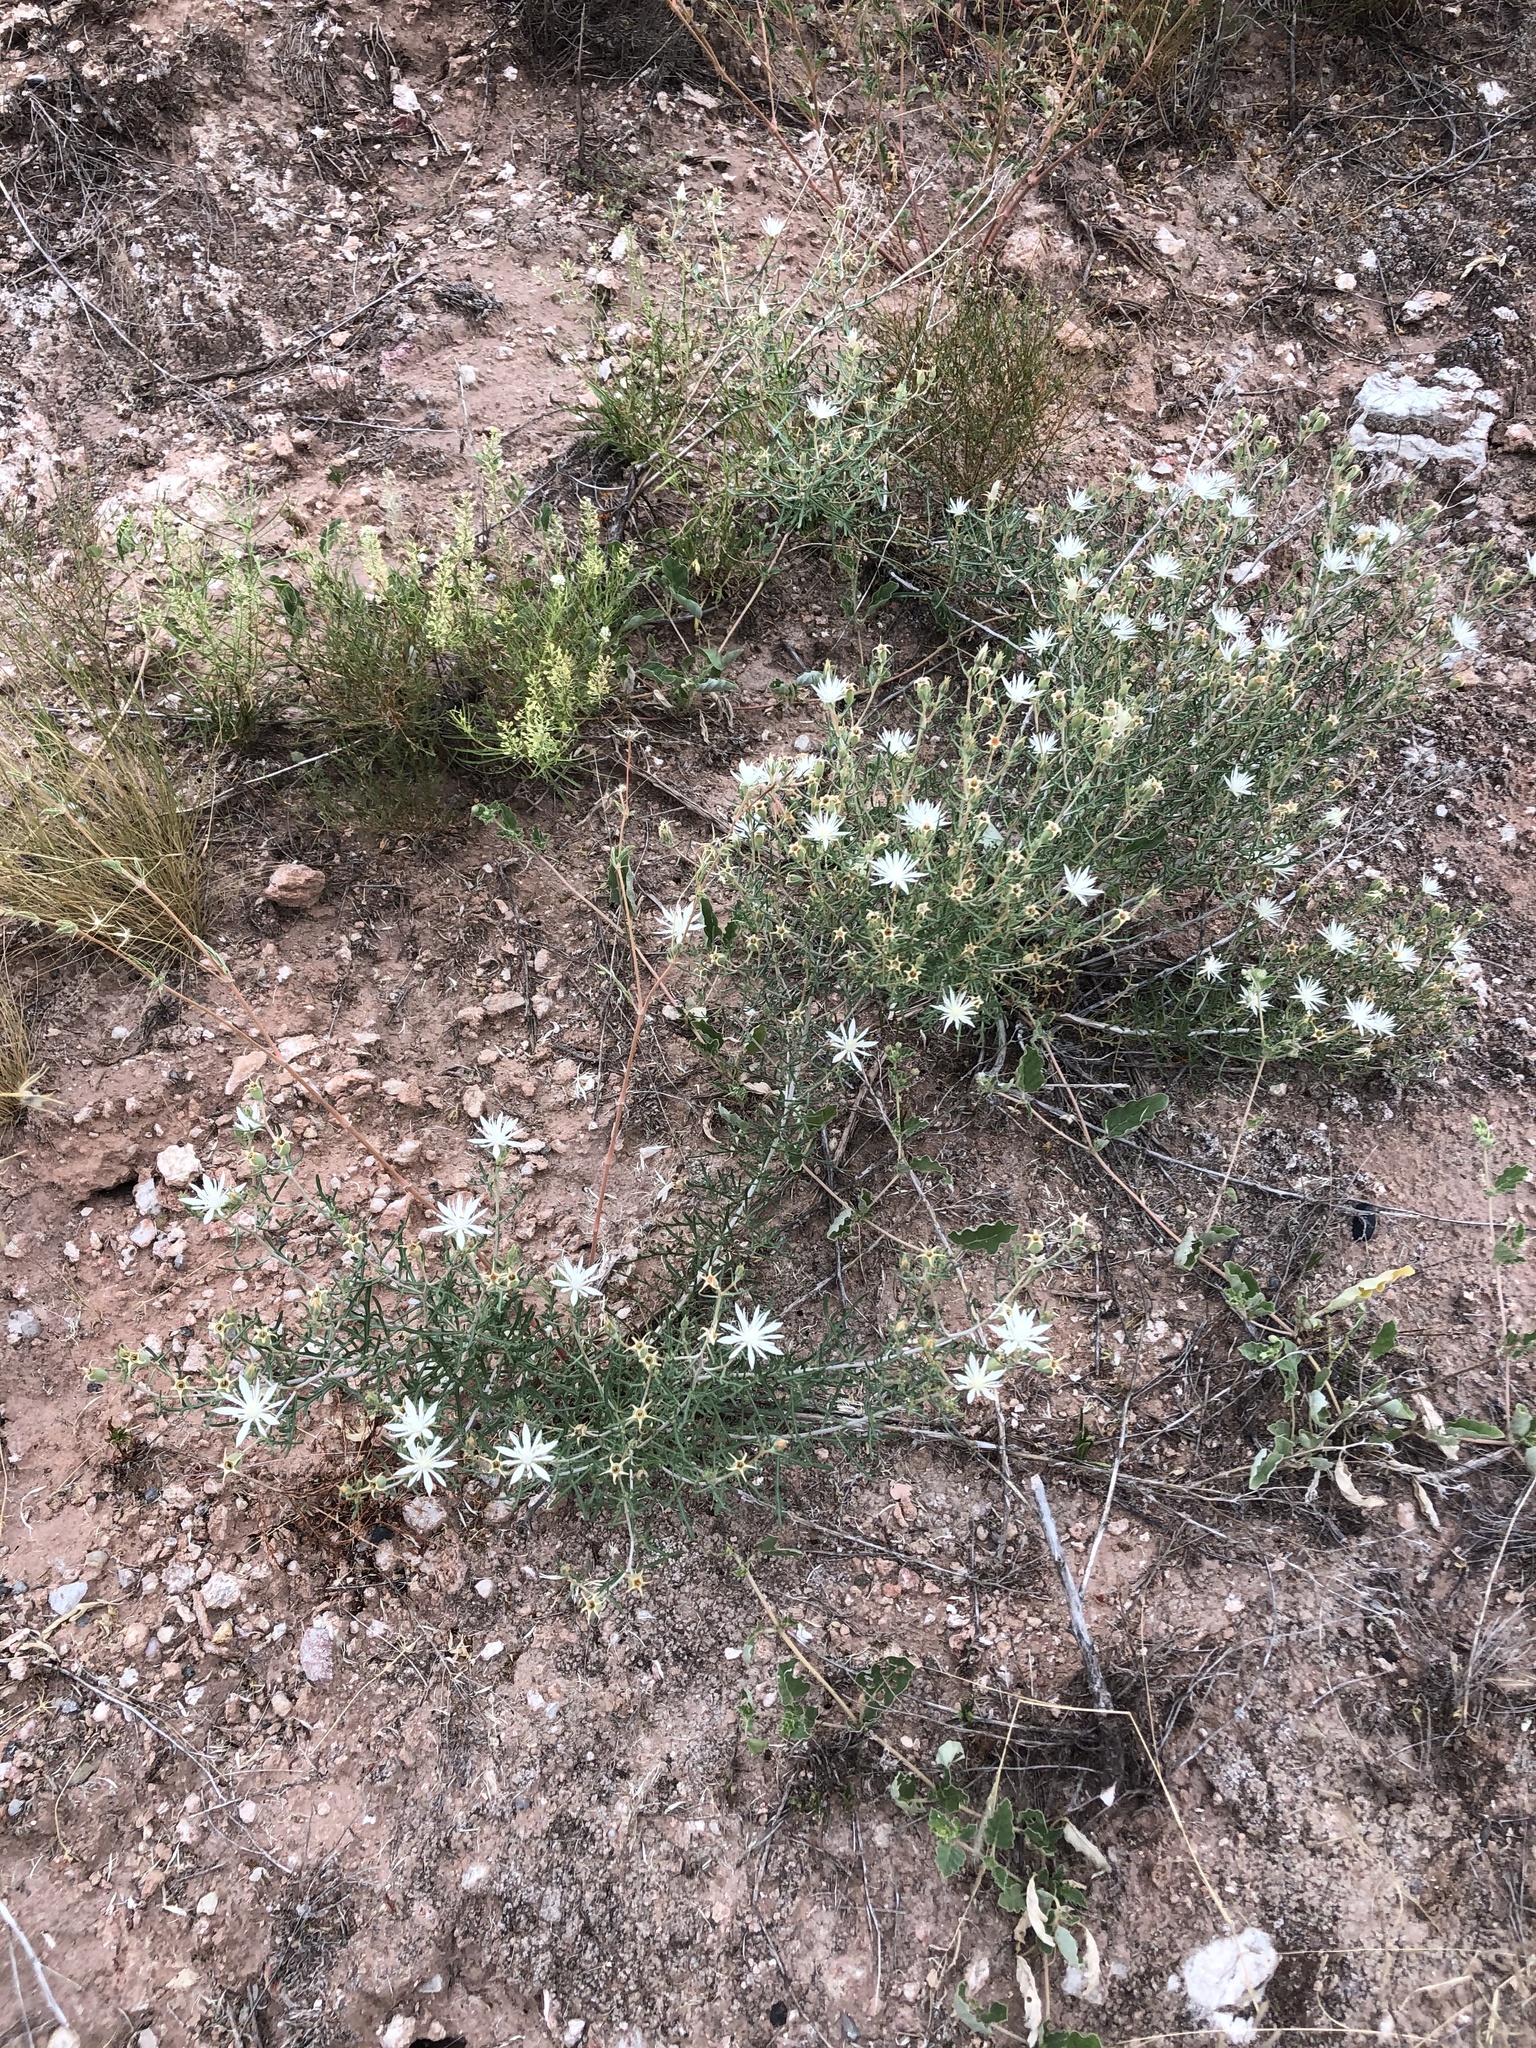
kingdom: Plantae
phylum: Tracheophyta
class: Magnoliopsida
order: Cornales
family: Loasaceae
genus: Mentzelia
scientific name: Mentzelia humilis
